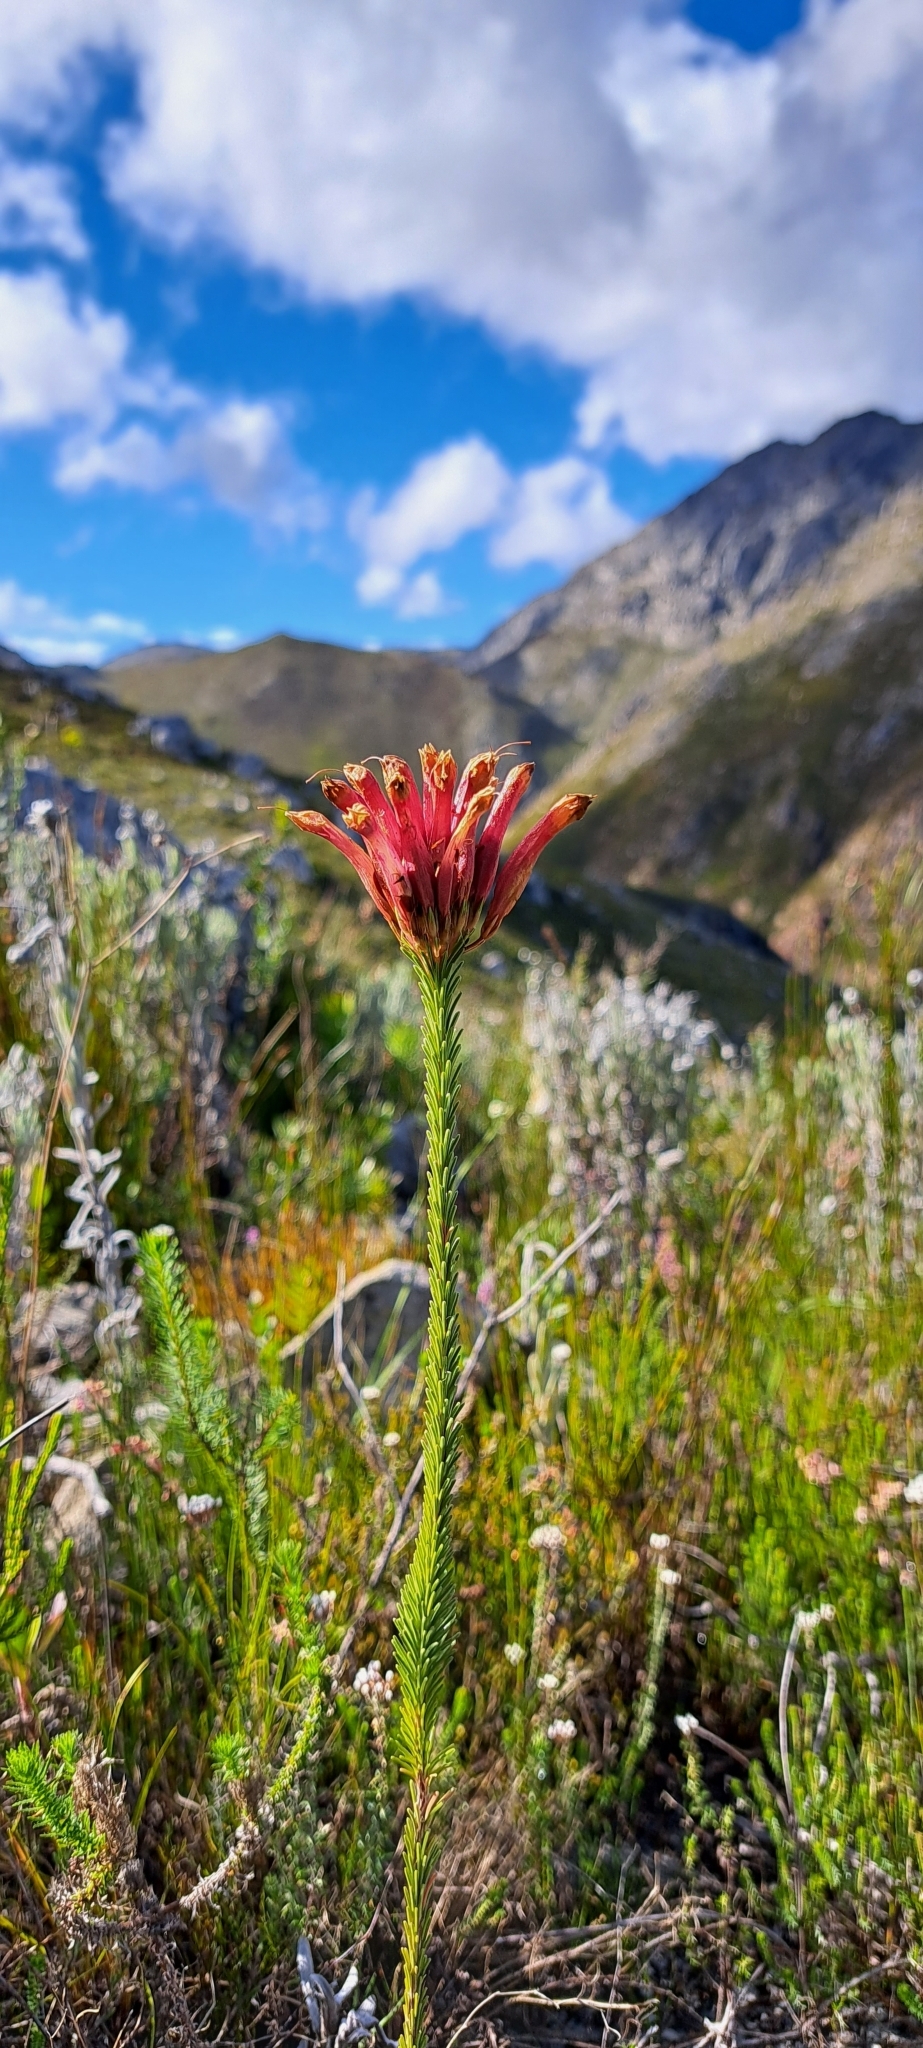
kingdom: Plantae
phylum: Tracheophyta
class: Magnoliopsida
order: Ericales
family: Ericaceae
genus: Erica
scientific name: Erica fascicularis
